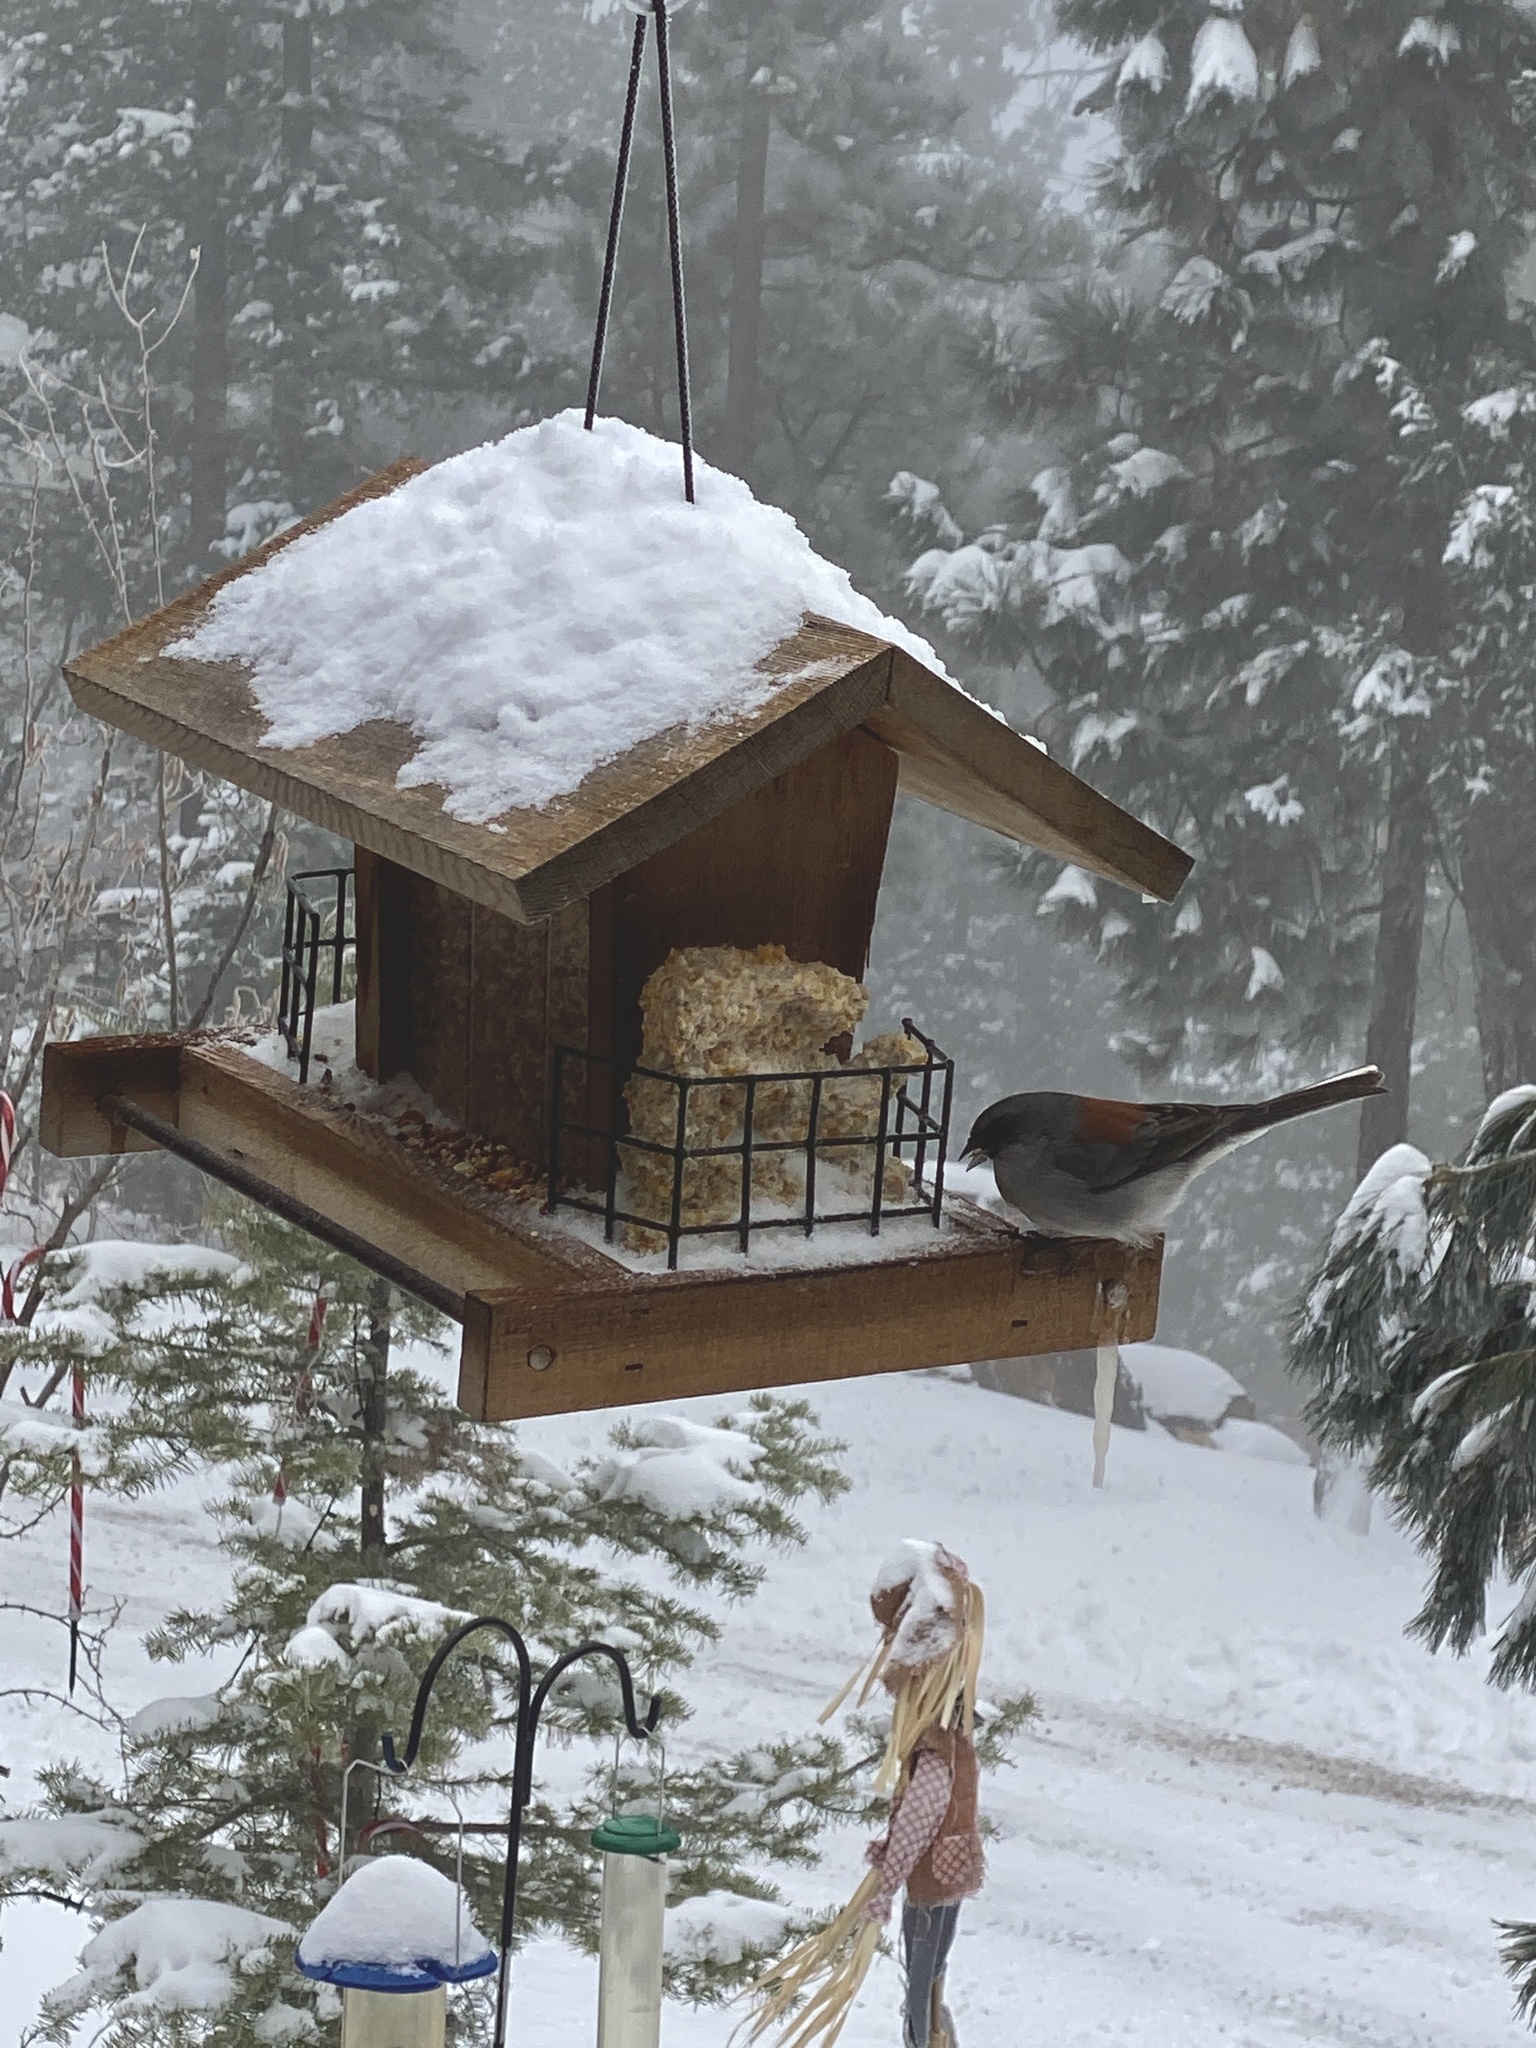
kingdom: Animalia
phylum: Chordata
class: Aves
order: Passeriformes
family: Passerellidae
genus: Junco
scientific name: Junco hyemalis
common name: Dark-eyed junco
